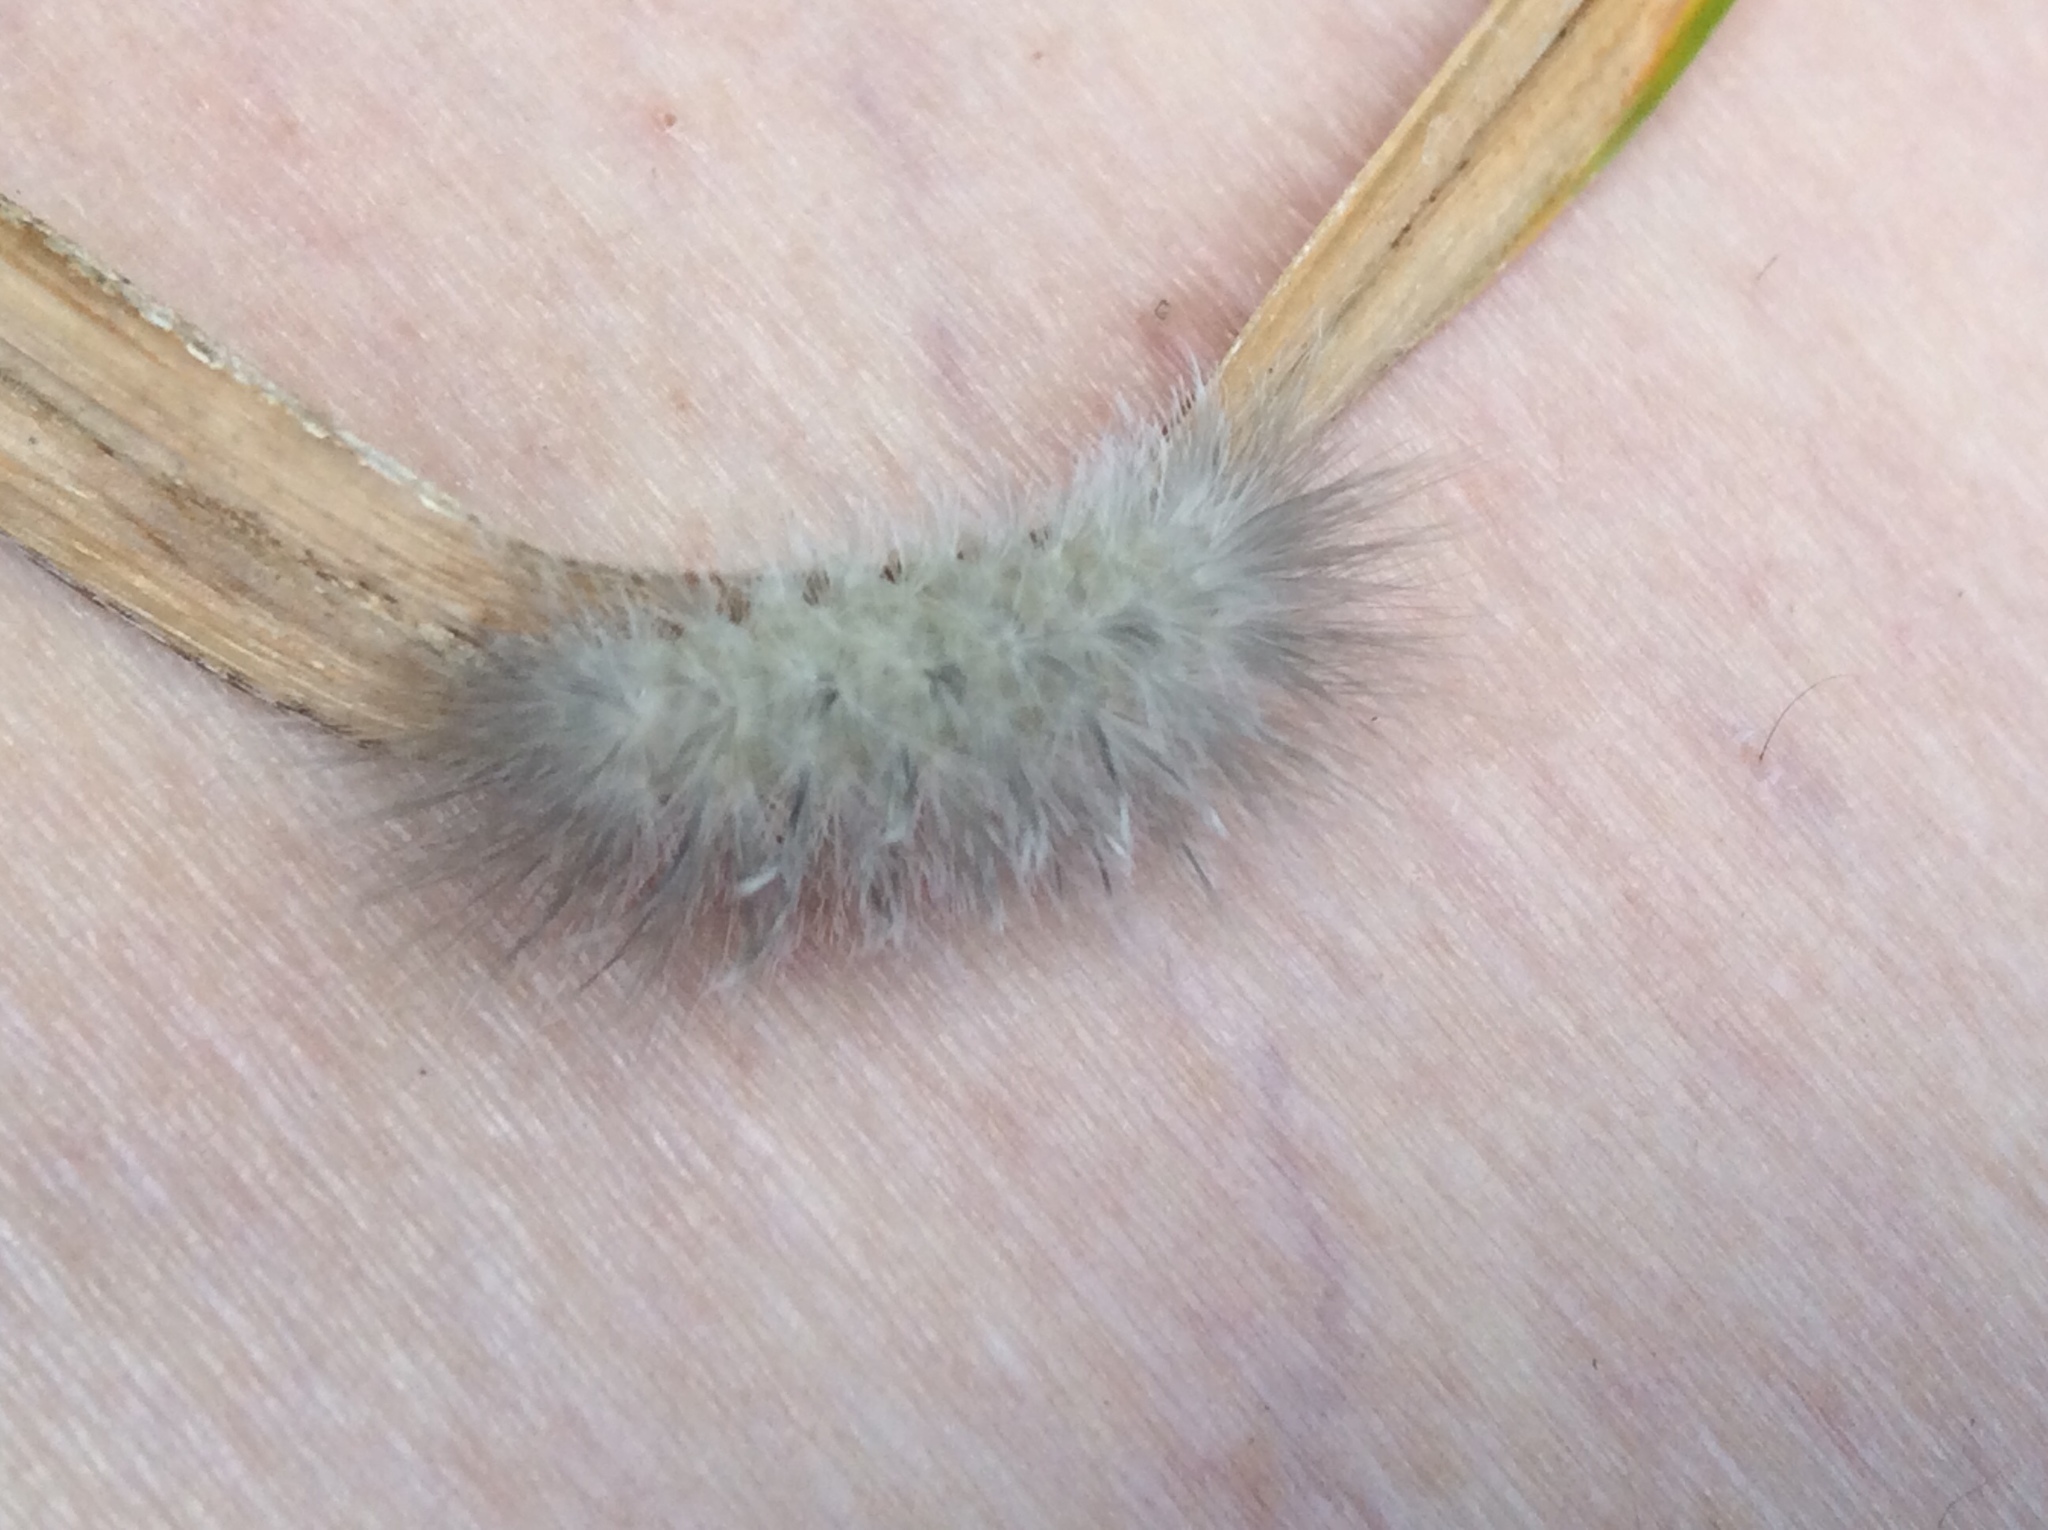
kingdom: Animalia
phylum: Arthropoda
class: Insecta
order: Lepidoptera
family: Erebidae
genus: Cycnia
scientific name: Cycnia tenera
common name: Delicate cycnia moth
